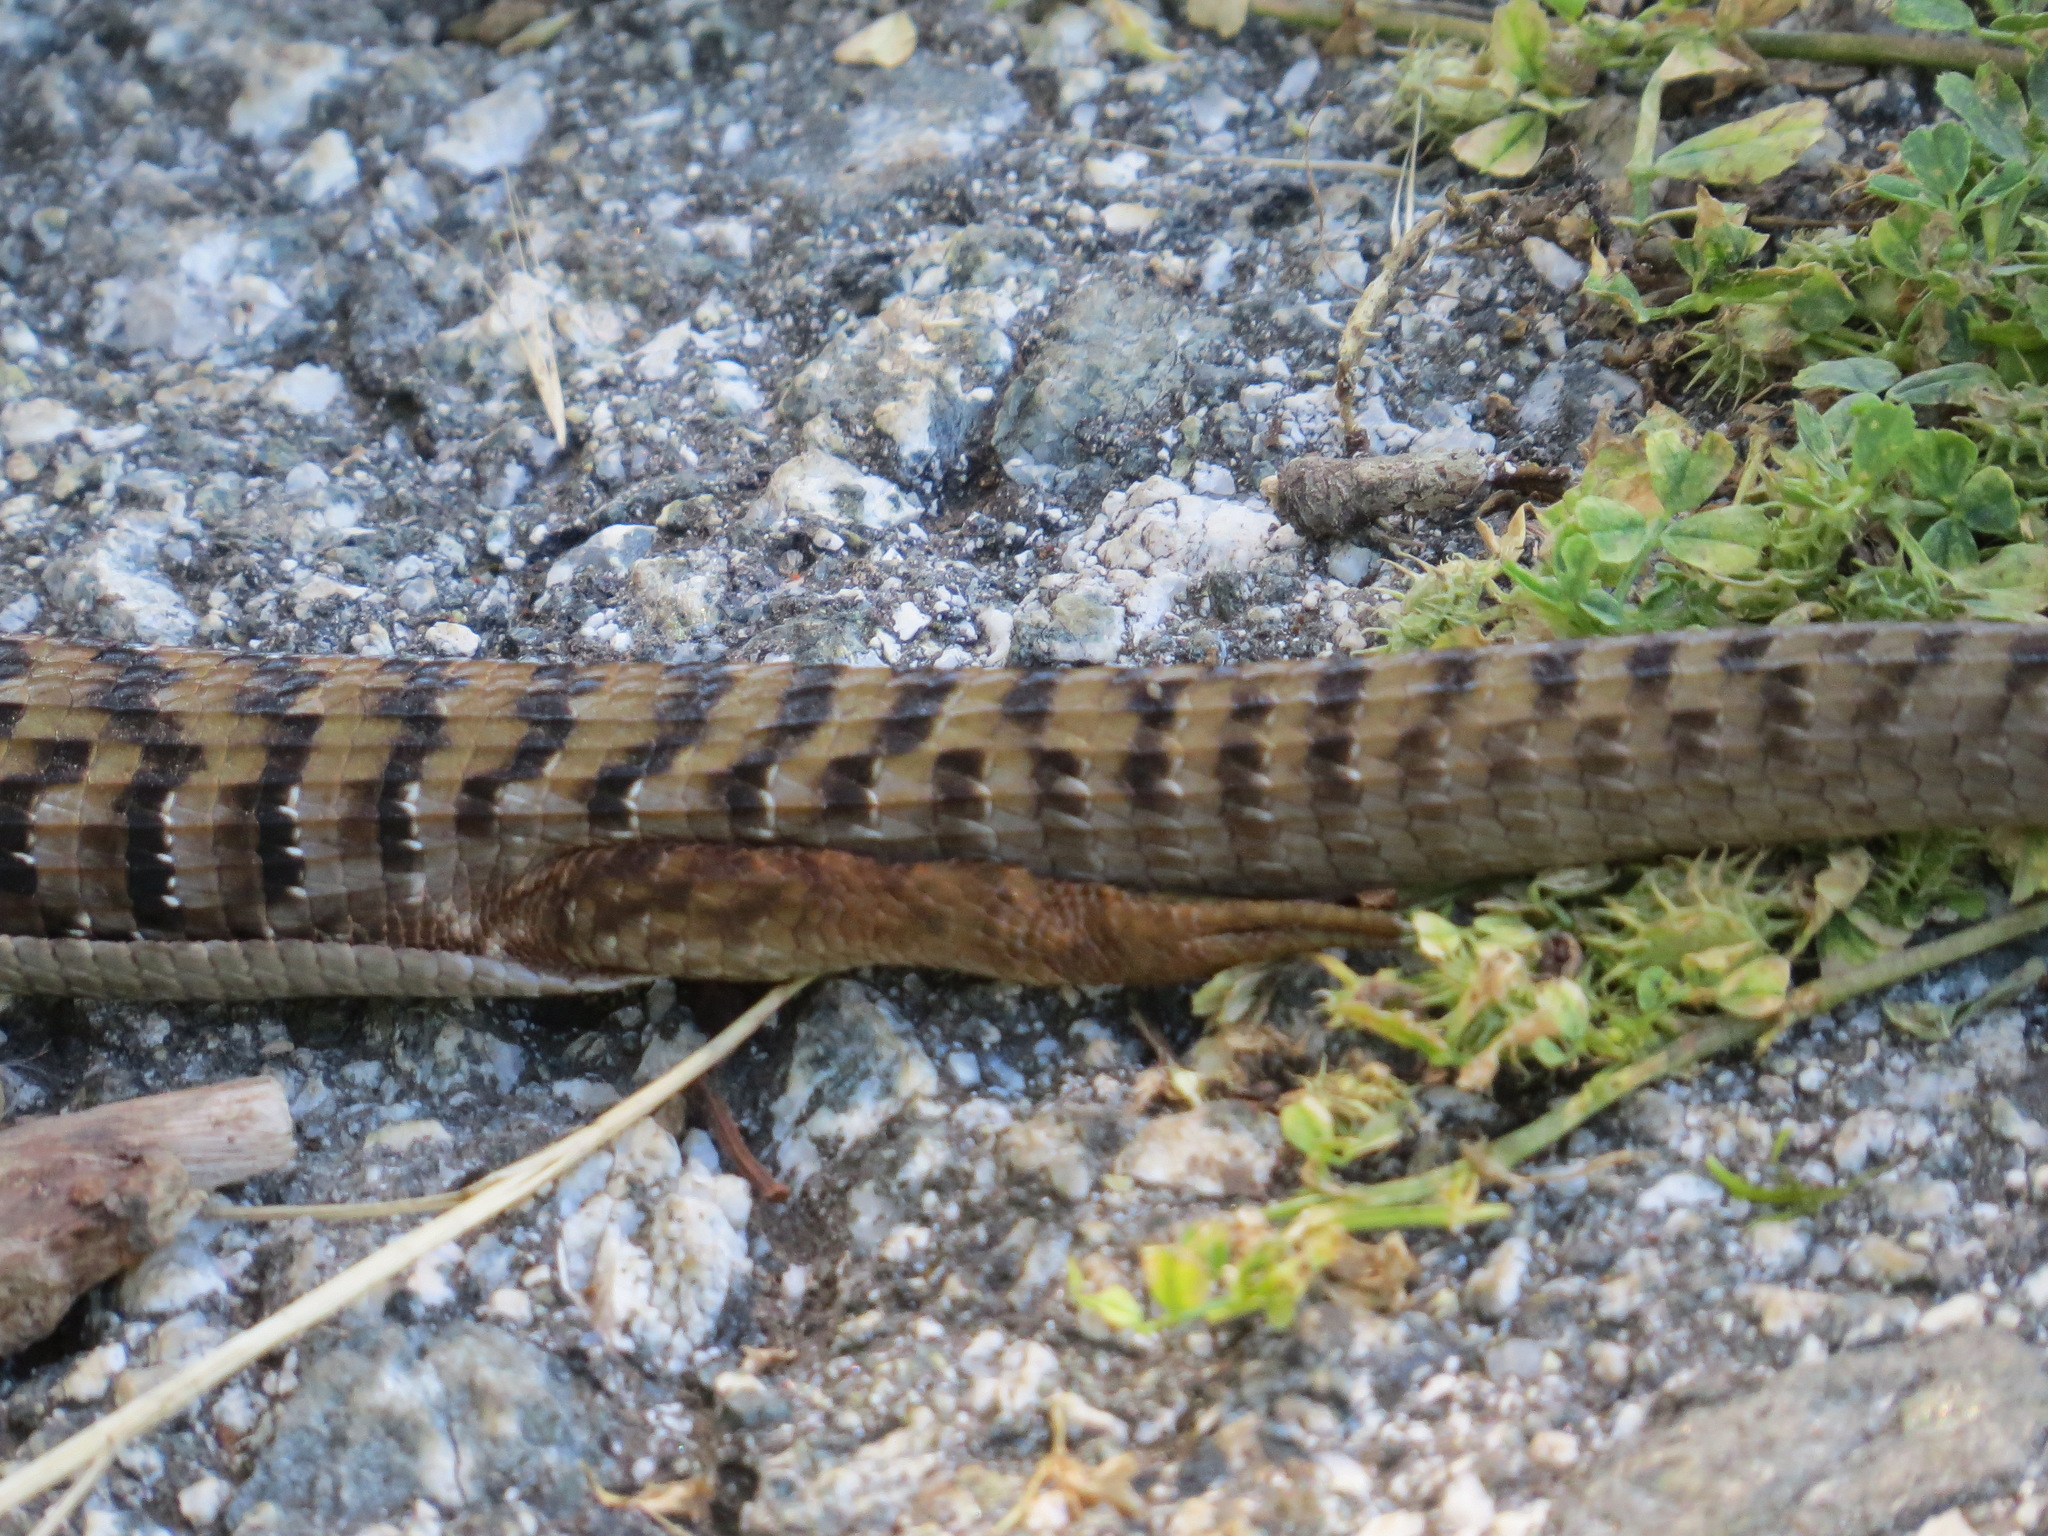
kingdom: Animalia
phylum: Chordata
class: Squamata
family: Anguidae
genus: Elgaria
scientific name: Elgaria multicarinata
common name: Southern alligator lizard
